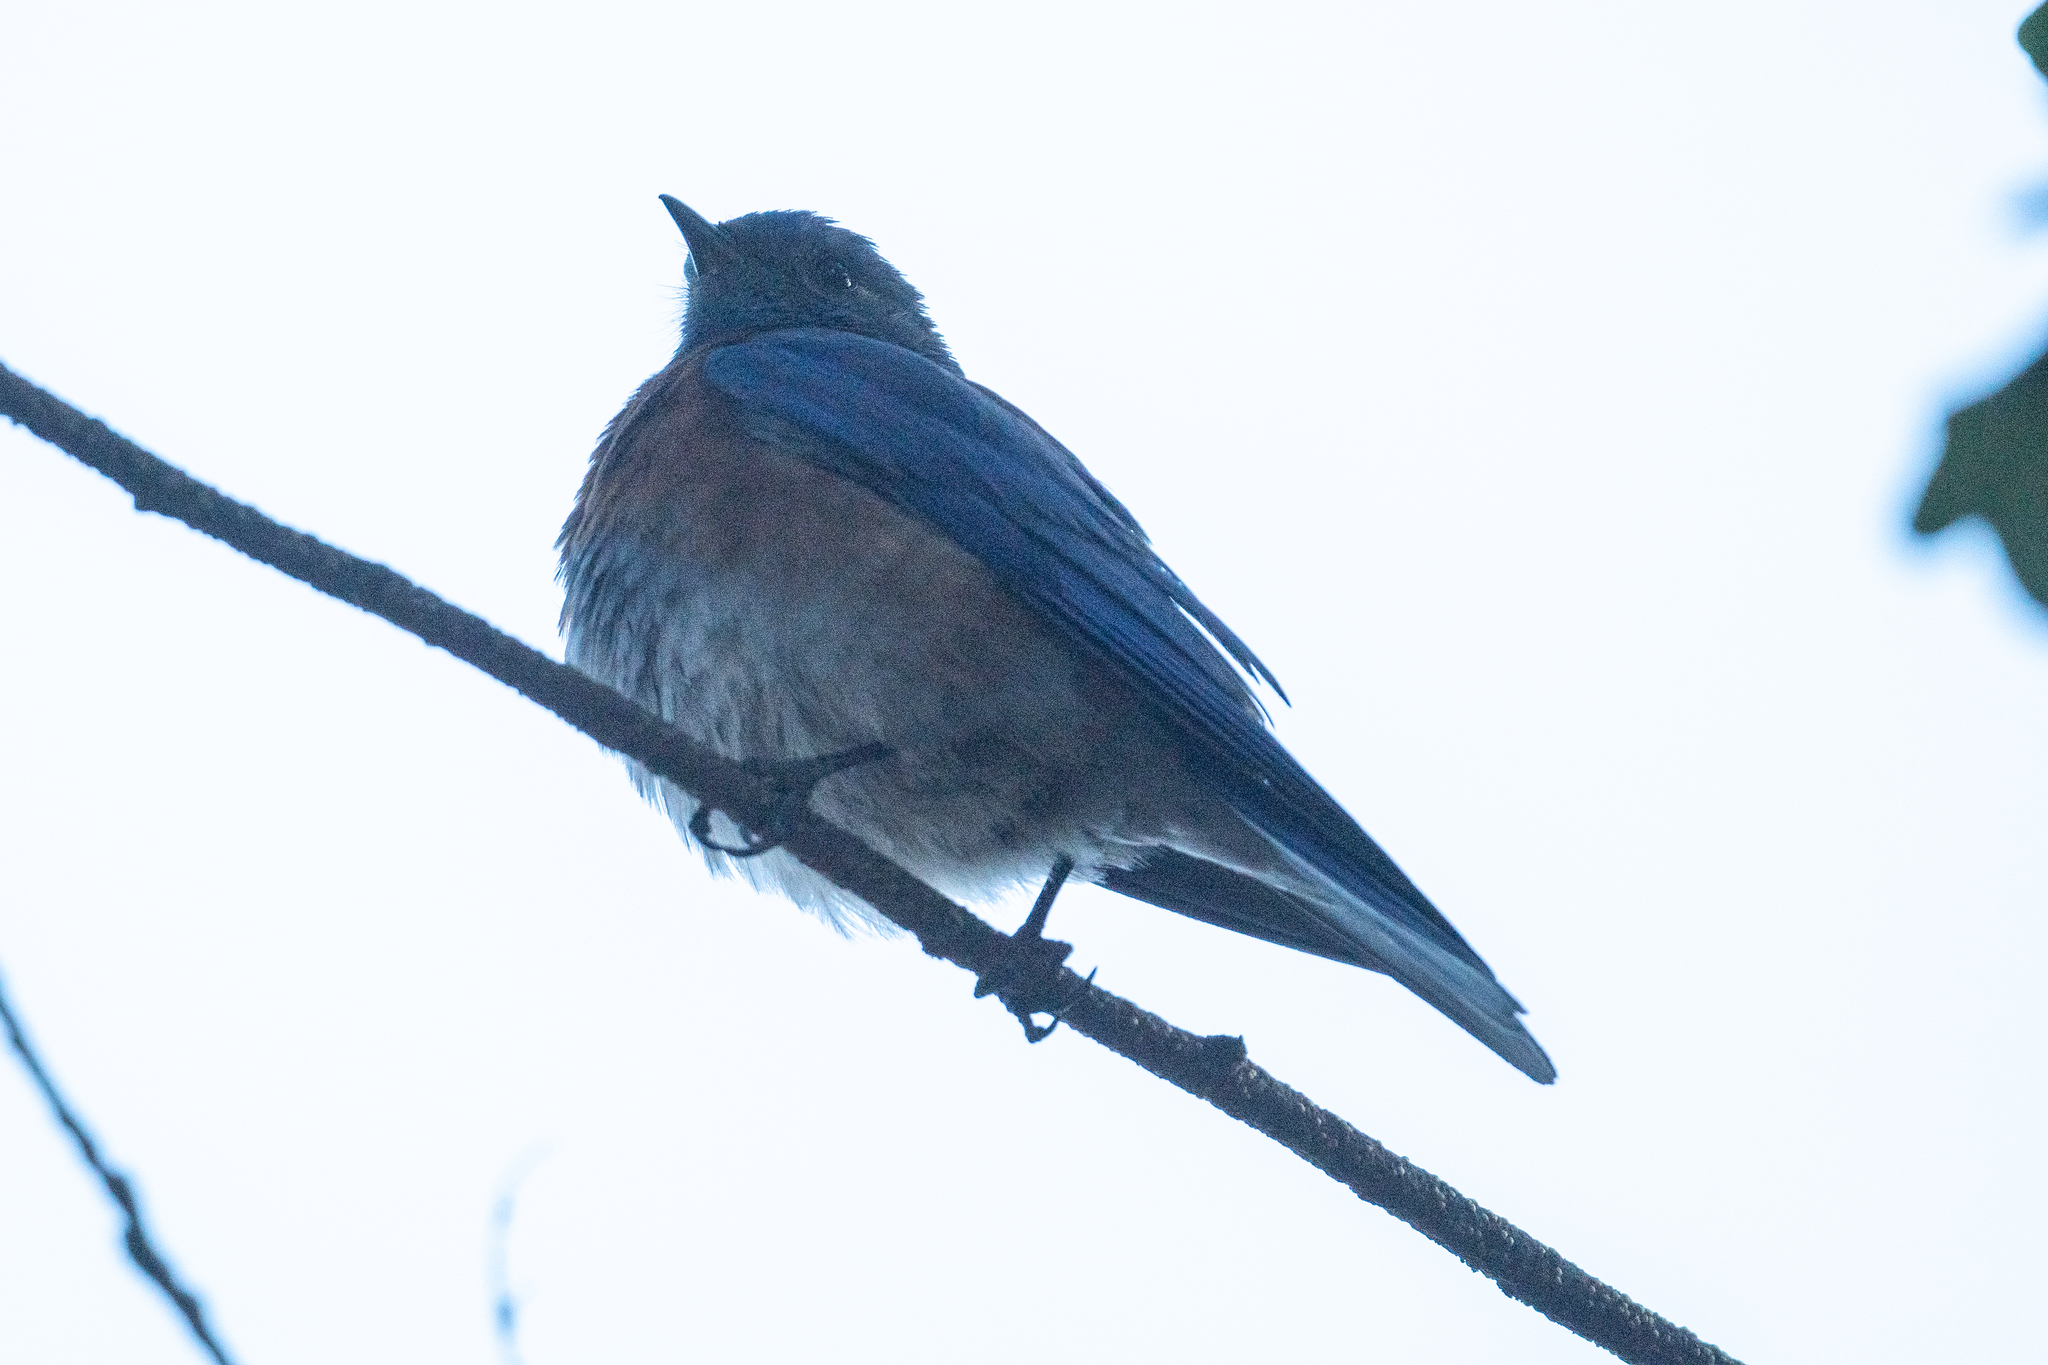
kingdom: Animalia
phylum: Chordata
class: Aves
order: Passeriformes
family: Turdidae
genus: Sialia
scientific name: Sialia mexicana
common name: Western bluebird
